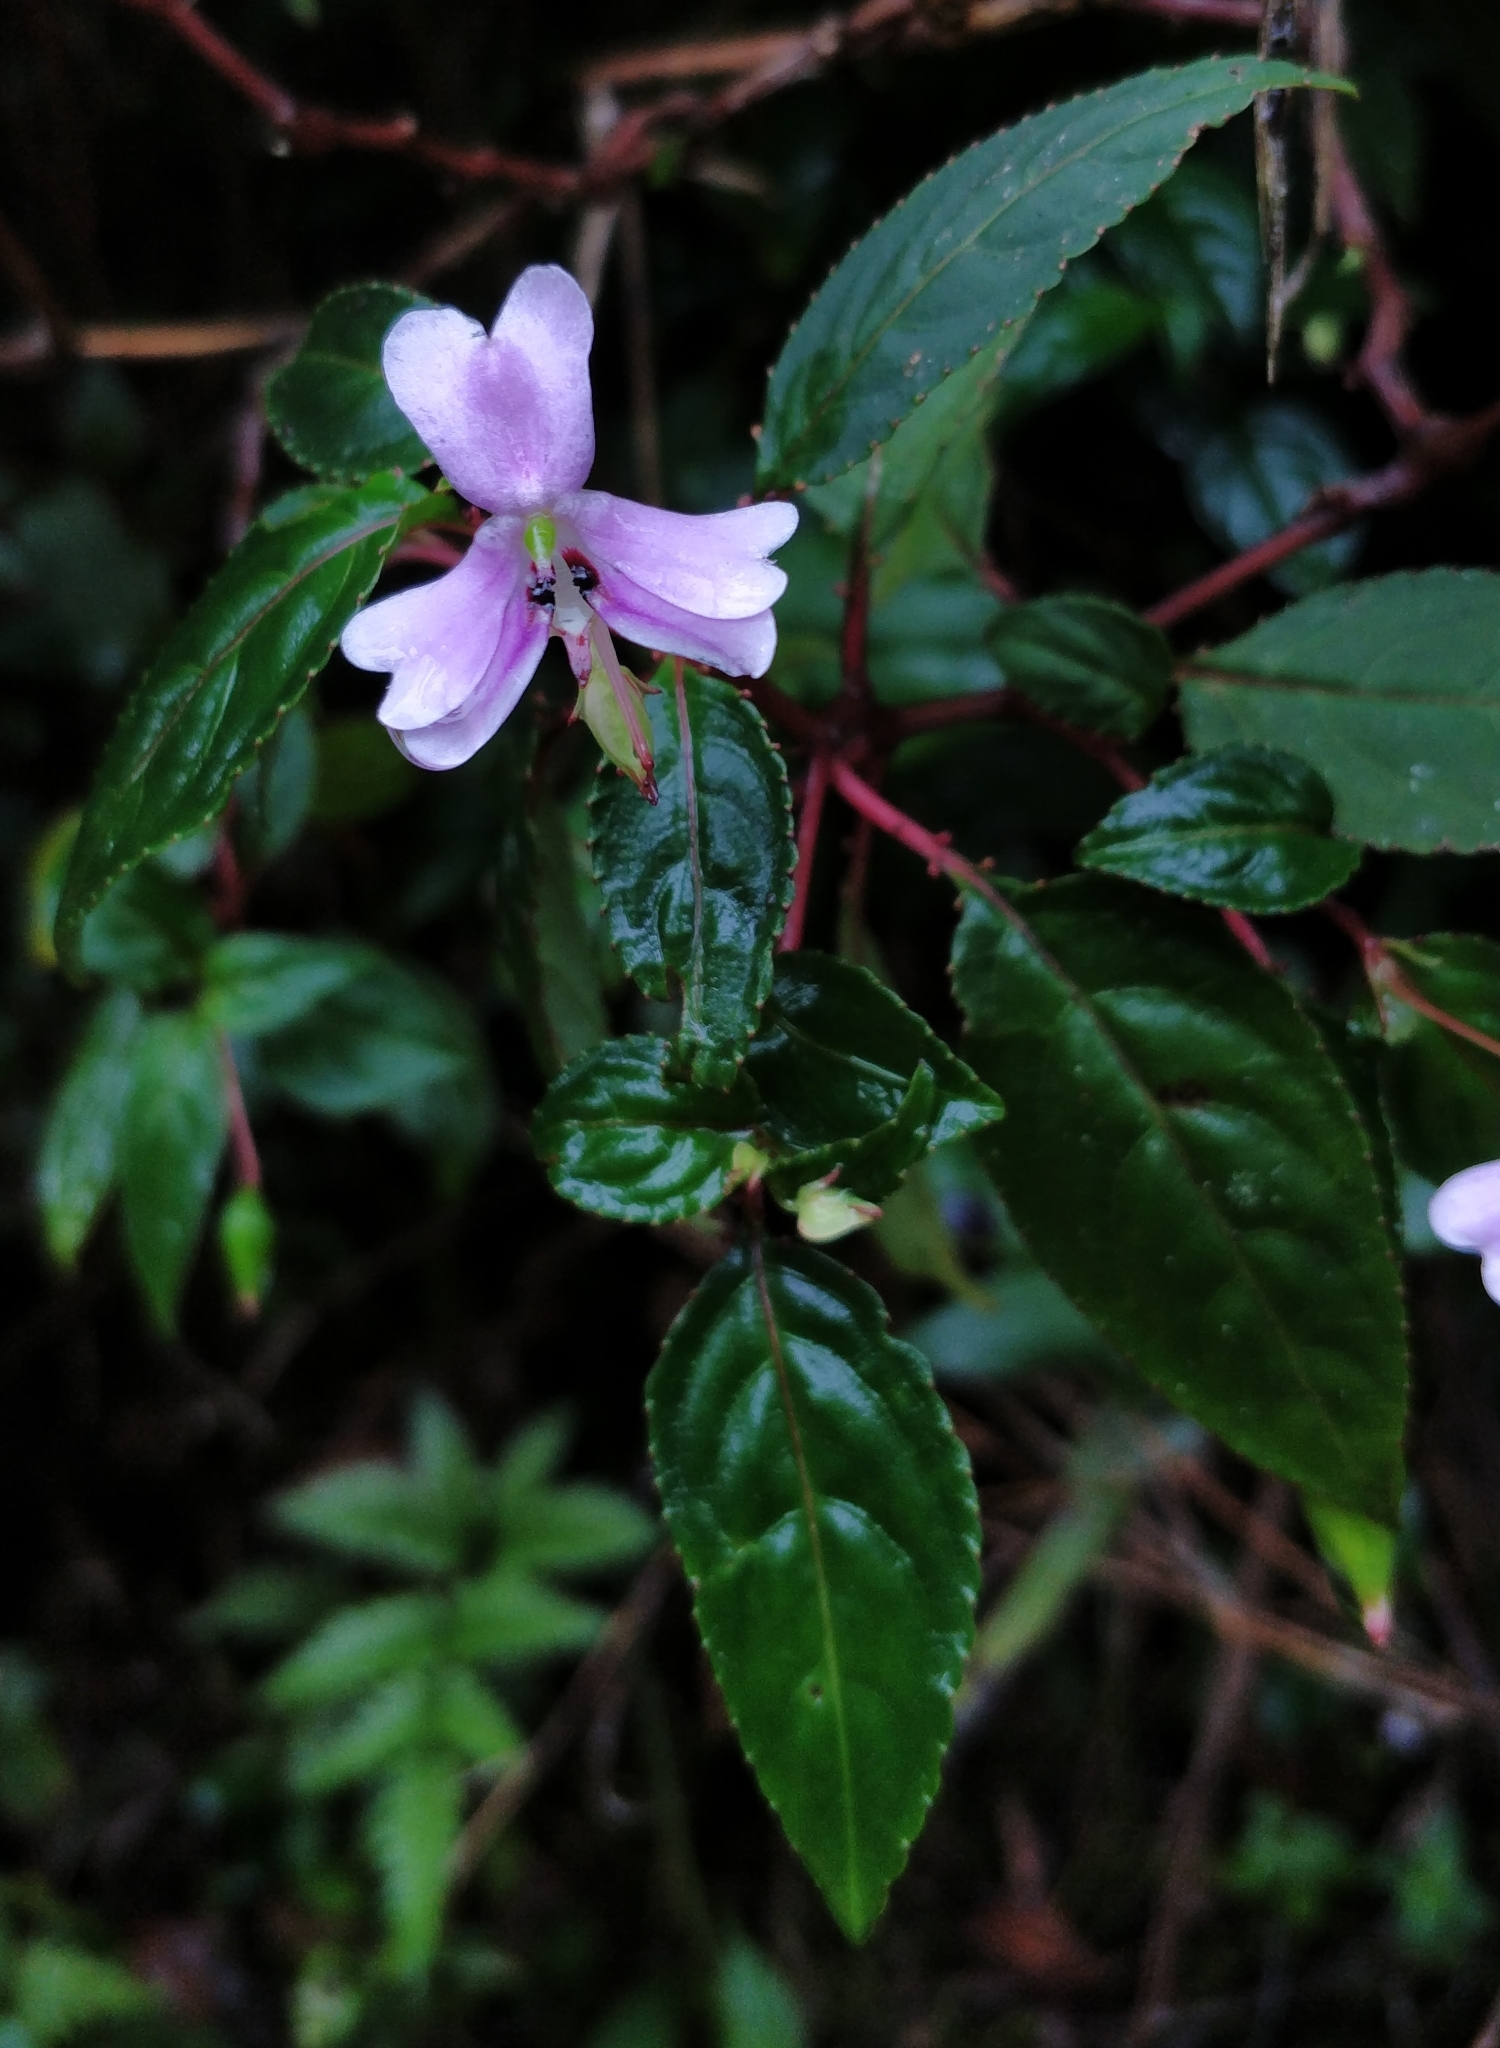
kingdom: Plantae
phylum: Tracheophyta
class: Magnoliopsida
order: Ericales
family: Balsaminaceae
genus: Impatiens
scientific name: Impatiens leptopoda
